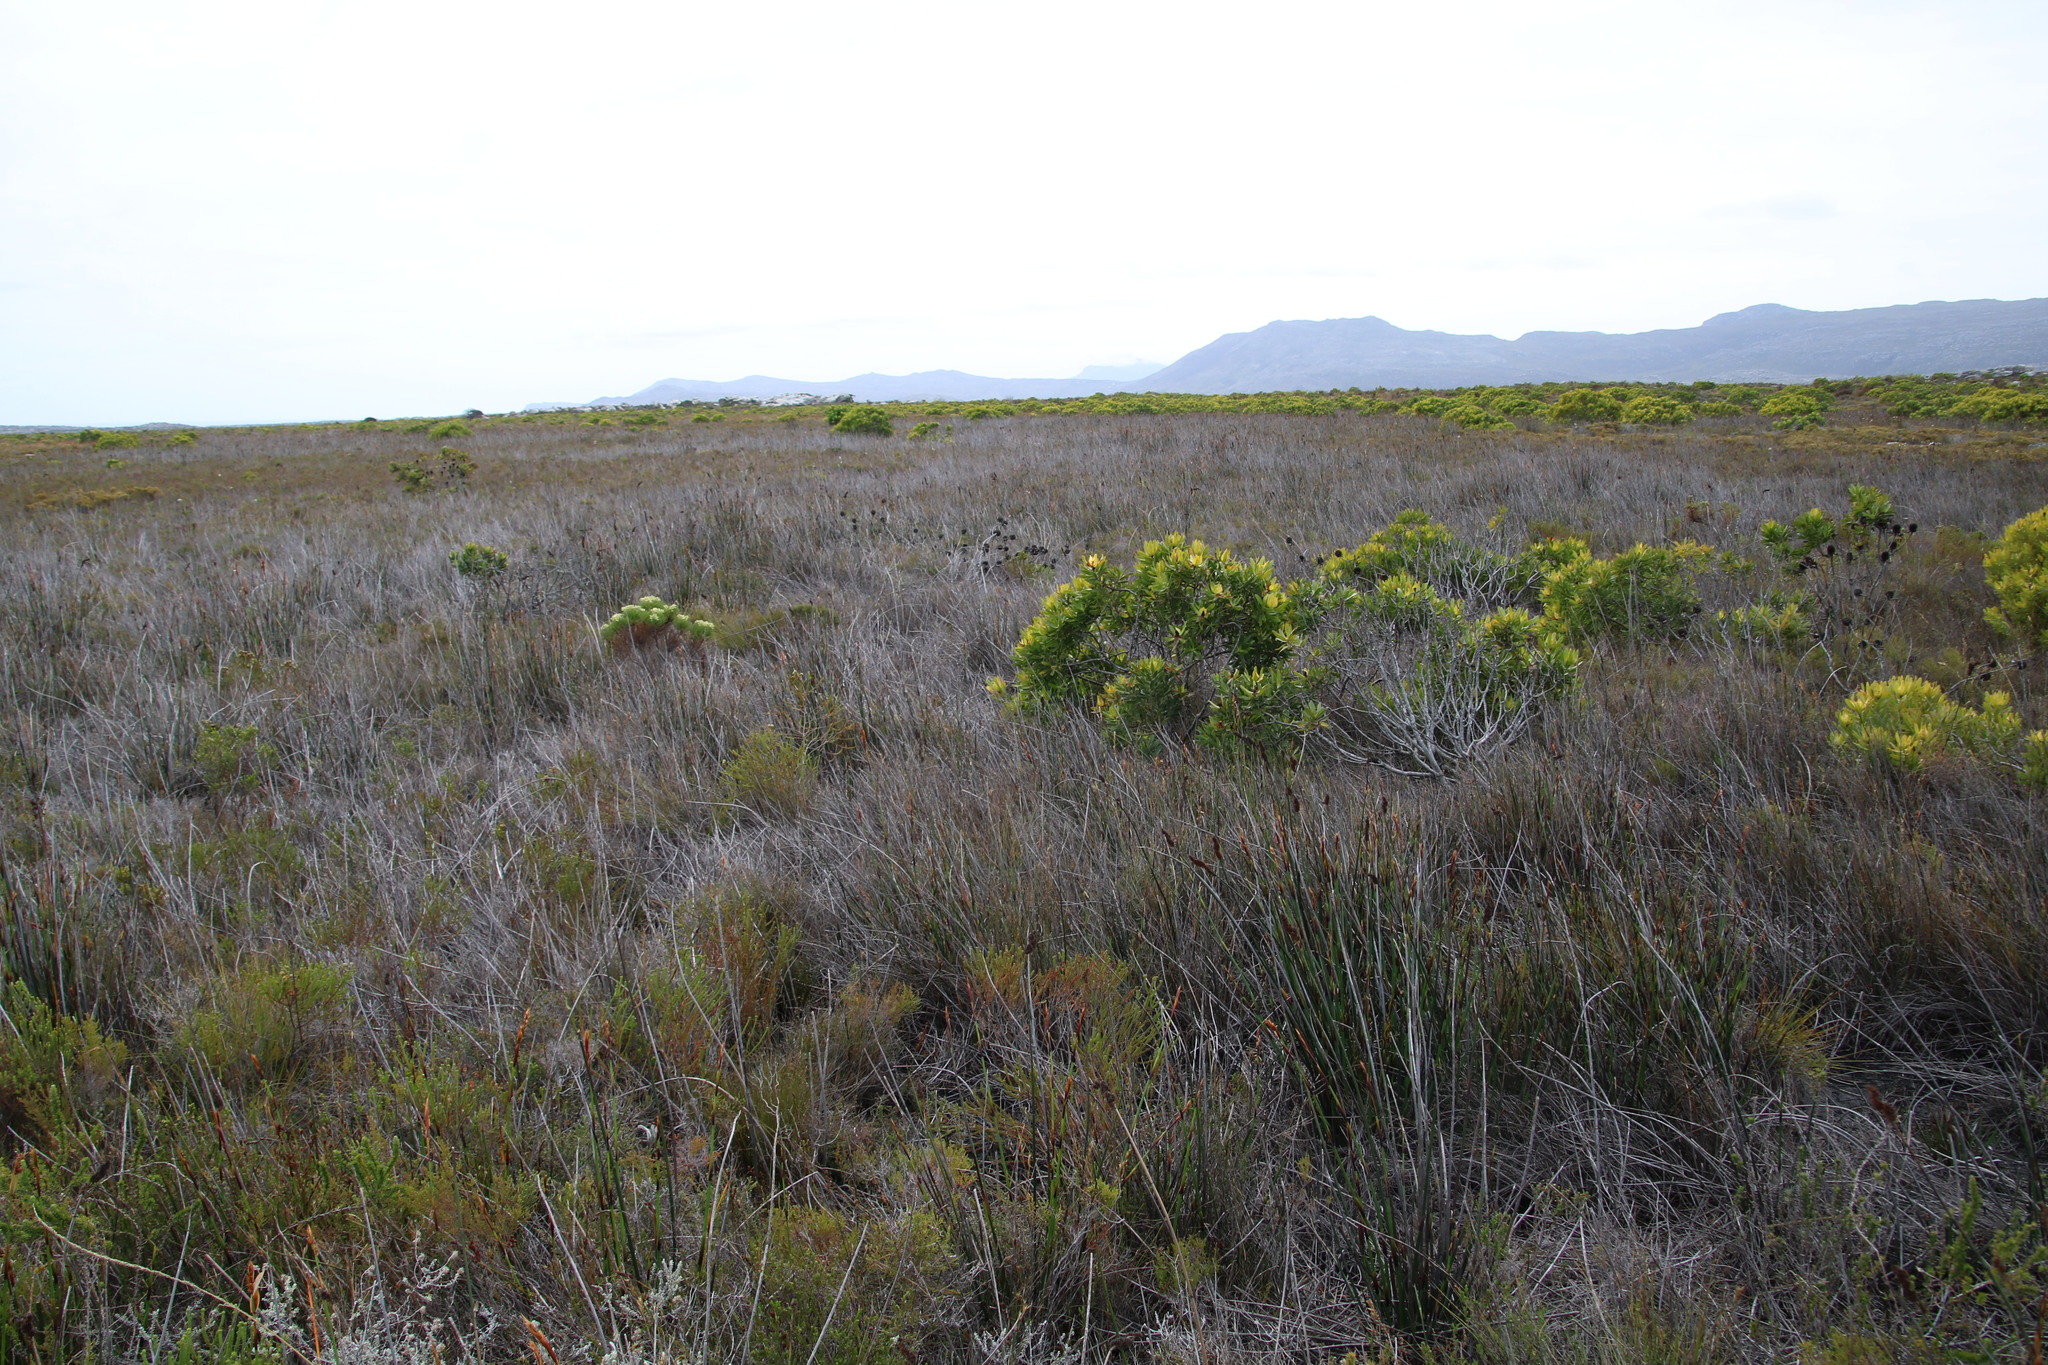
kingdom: Plantae
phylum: Tracheophyta
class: Liliopsida
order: Poales
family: Restionaceae
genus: Elegia
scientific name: Elegia cuspidata
